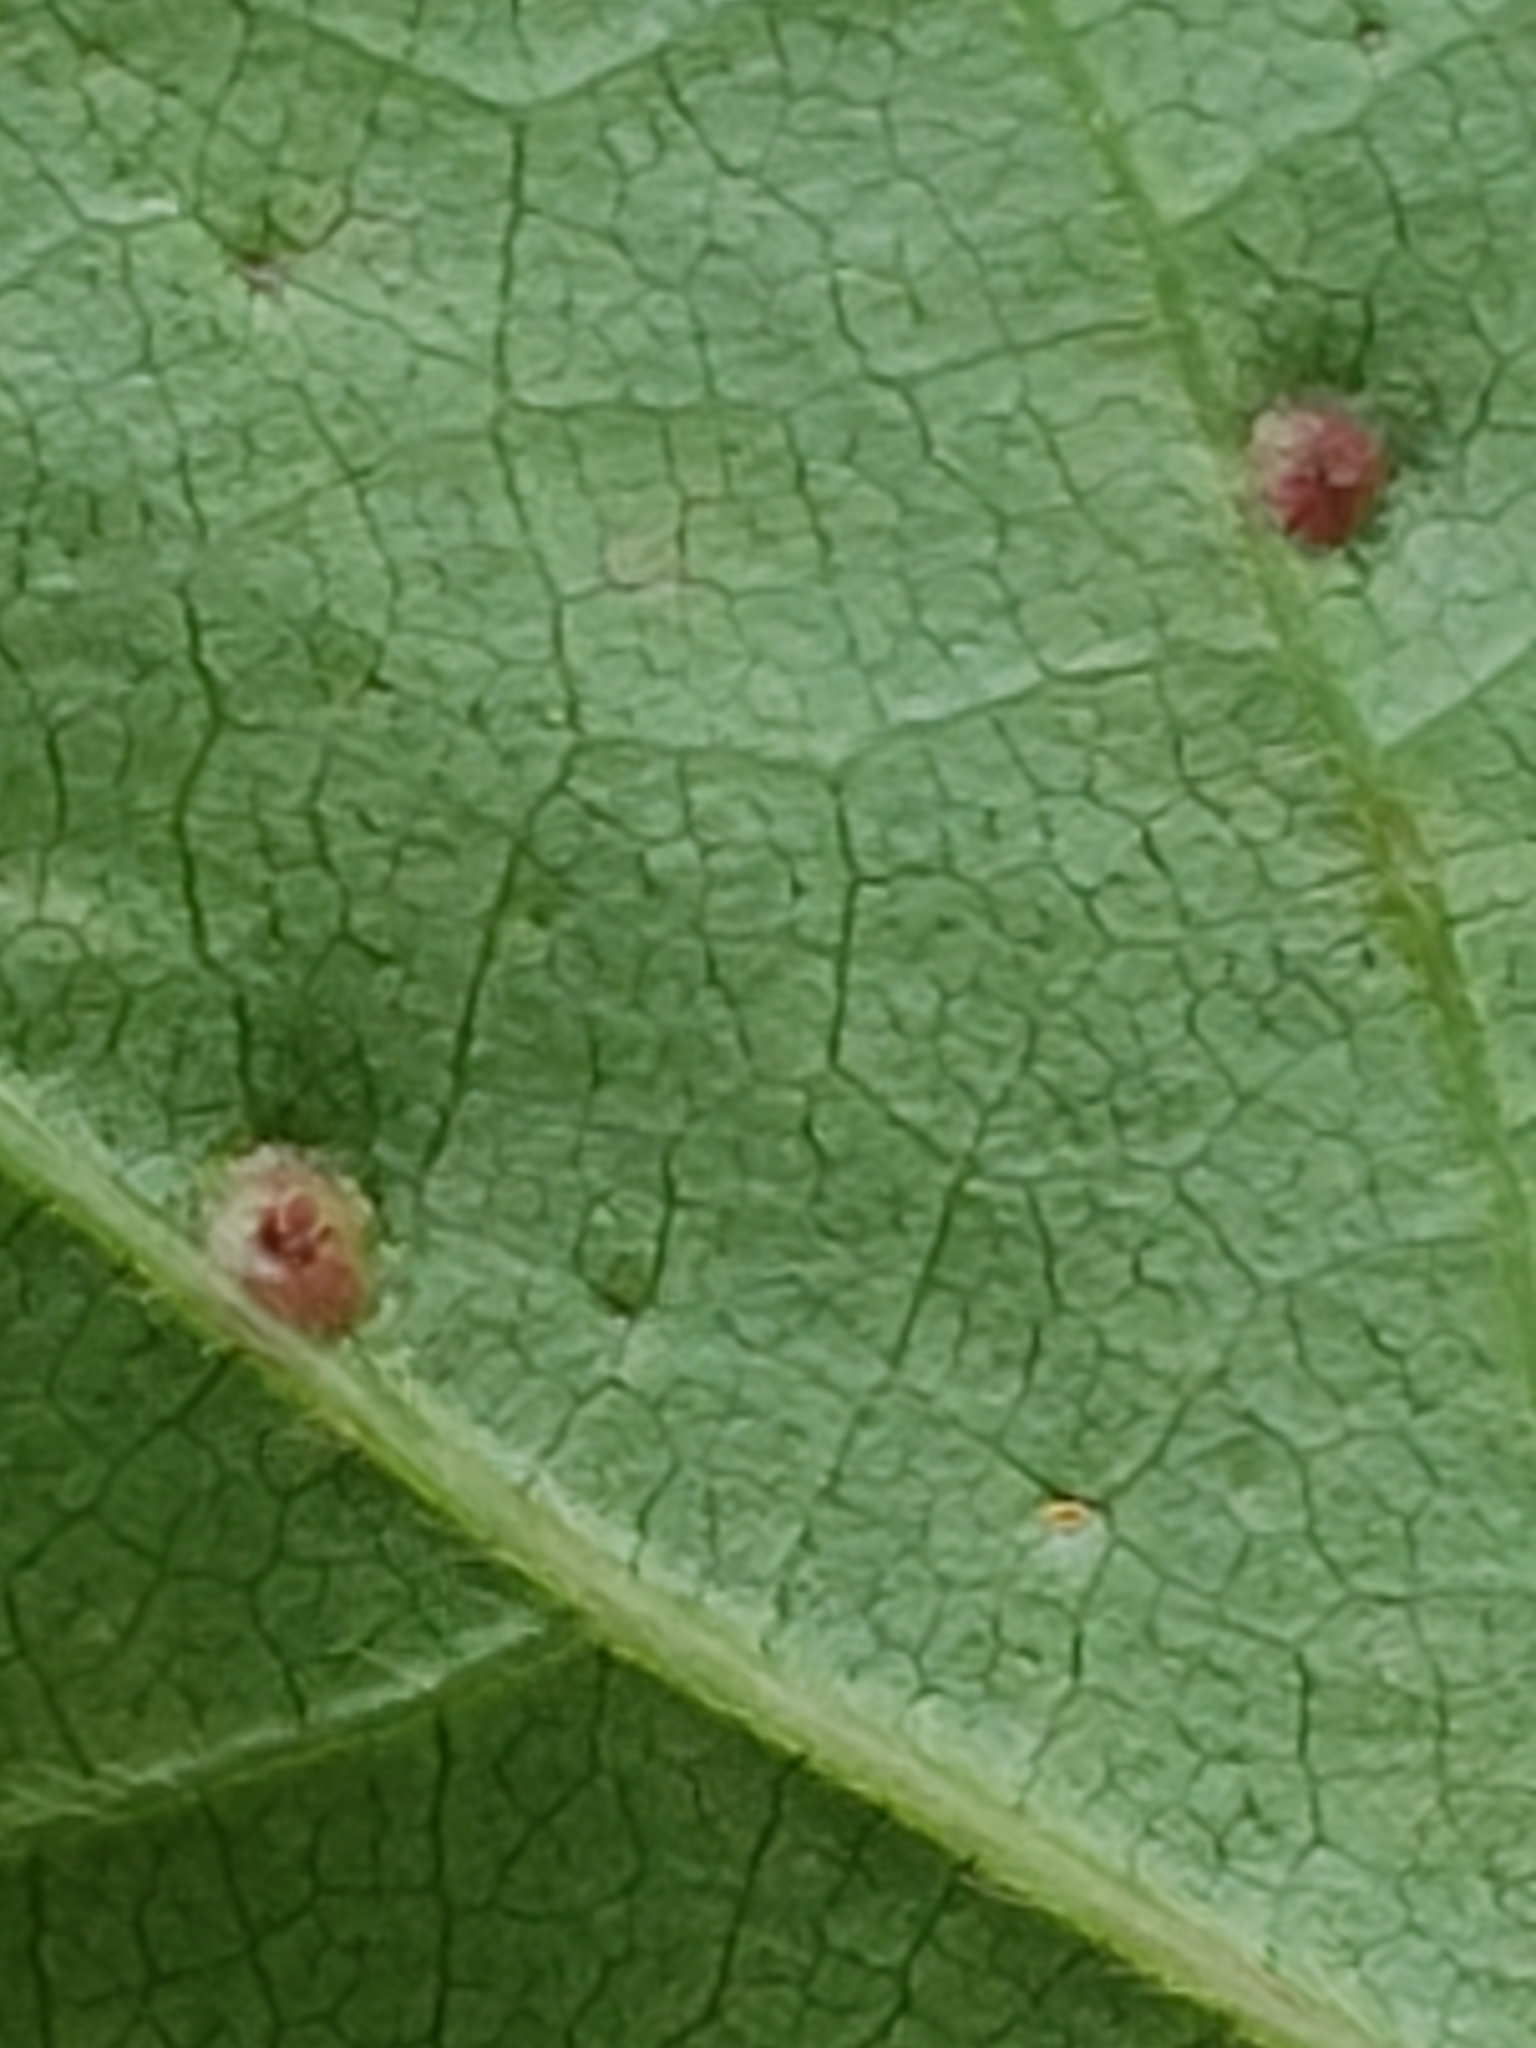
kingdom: Animalia
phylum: Arthropoda
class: Arachnida
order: Trombidiformes
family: Eriophyidae
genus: Aceria
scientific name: Aceria
